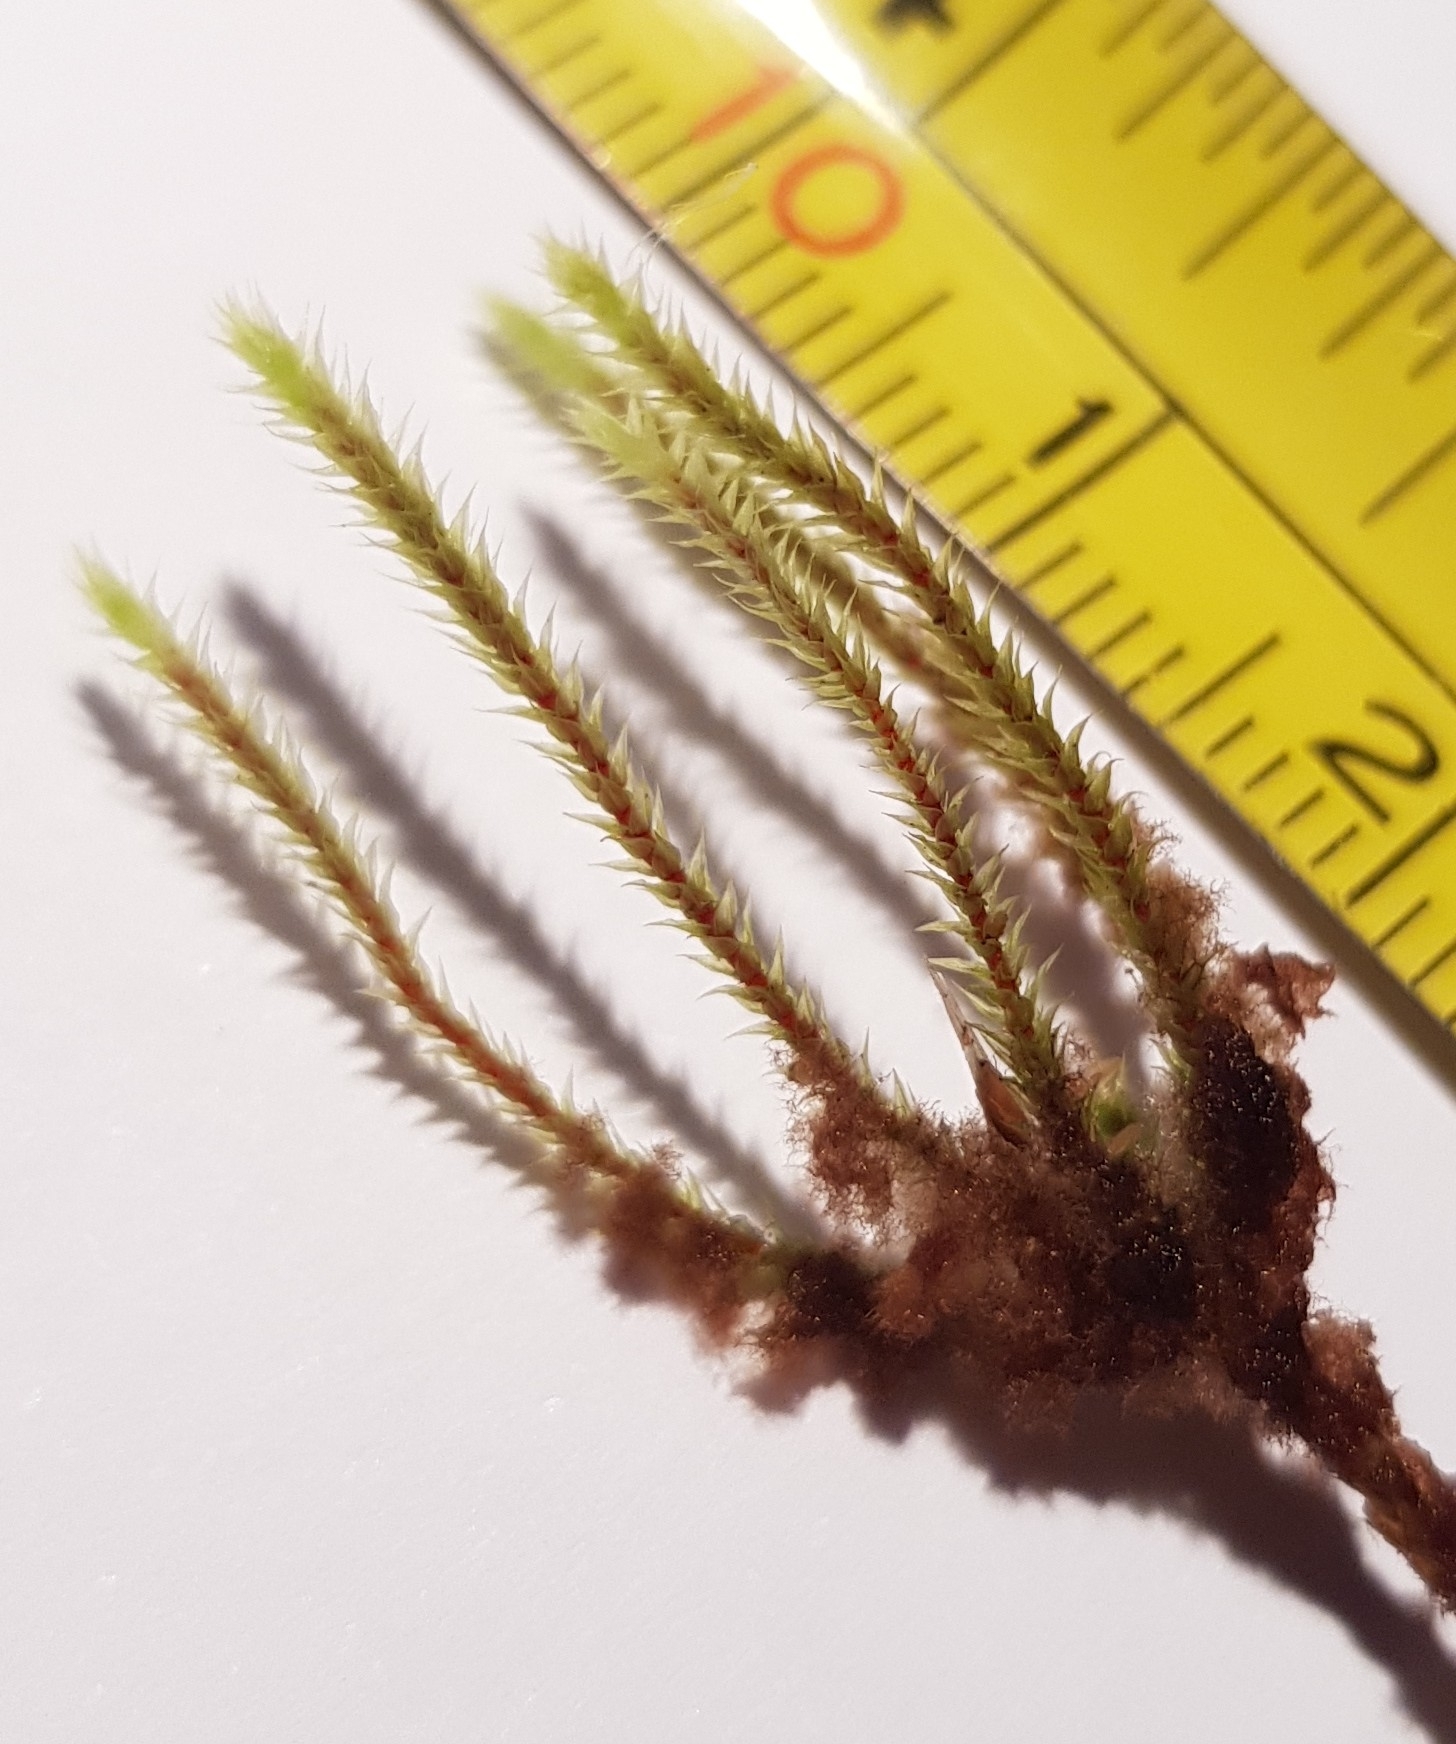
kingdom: Plantae
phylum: Bryophyta
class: Bryopsida
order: Bartramiales
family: Bartramiaceae
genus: Philonotis
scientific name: Philonotis fontana
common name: Fountain apple-moss
